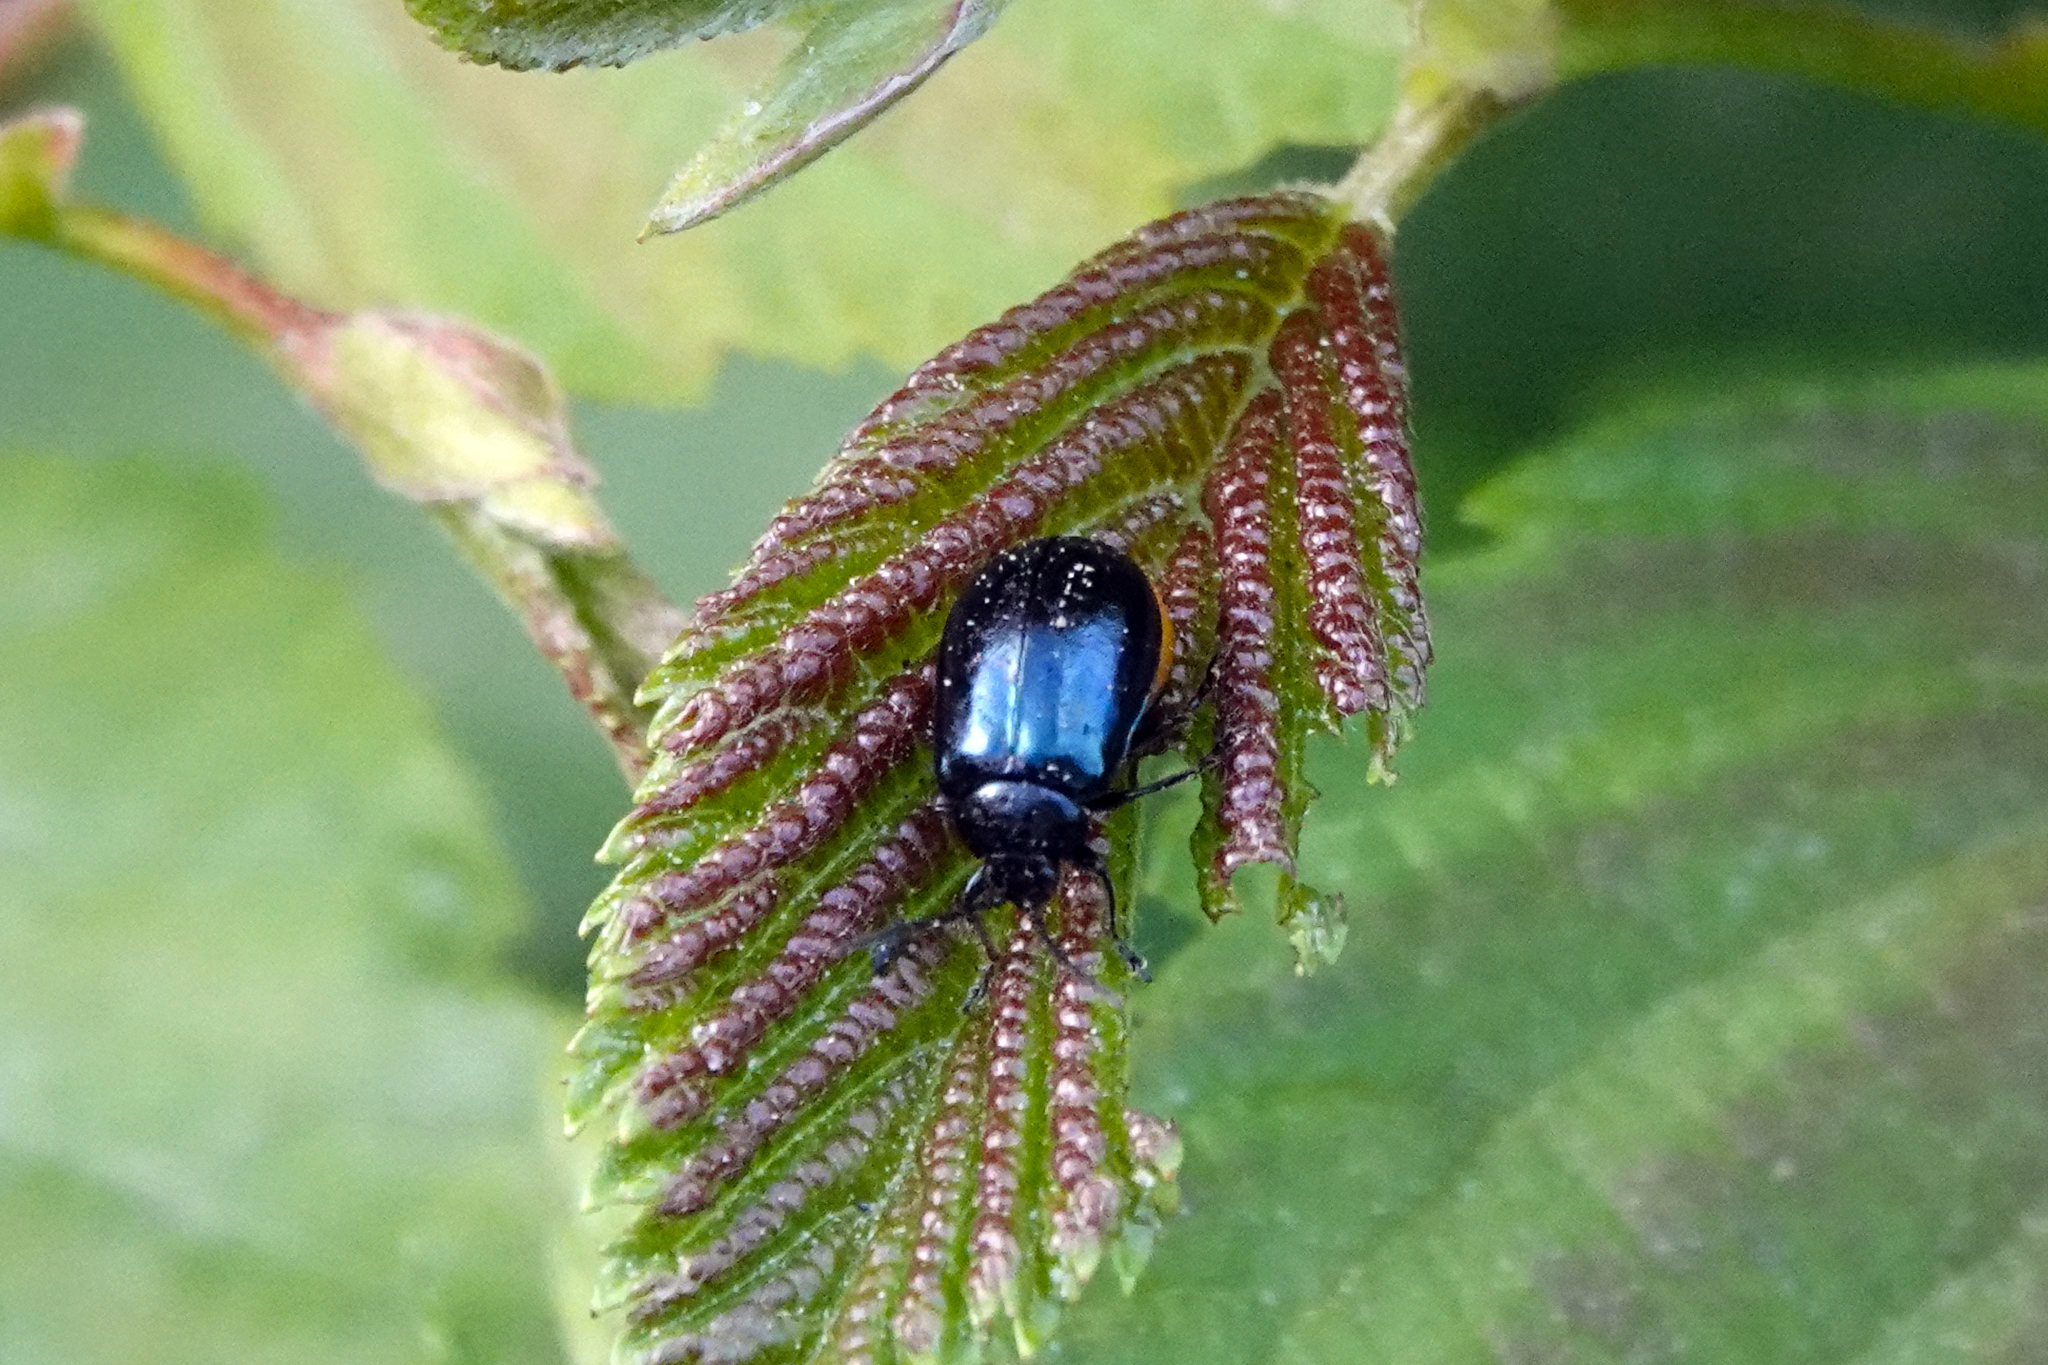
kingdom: Animalia
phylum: Arthropoda
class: Insecta
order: Coleoptera
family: Chrysomelidae
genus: Agelastica
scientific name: Agelastica alni
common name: Alder leaf beetle
